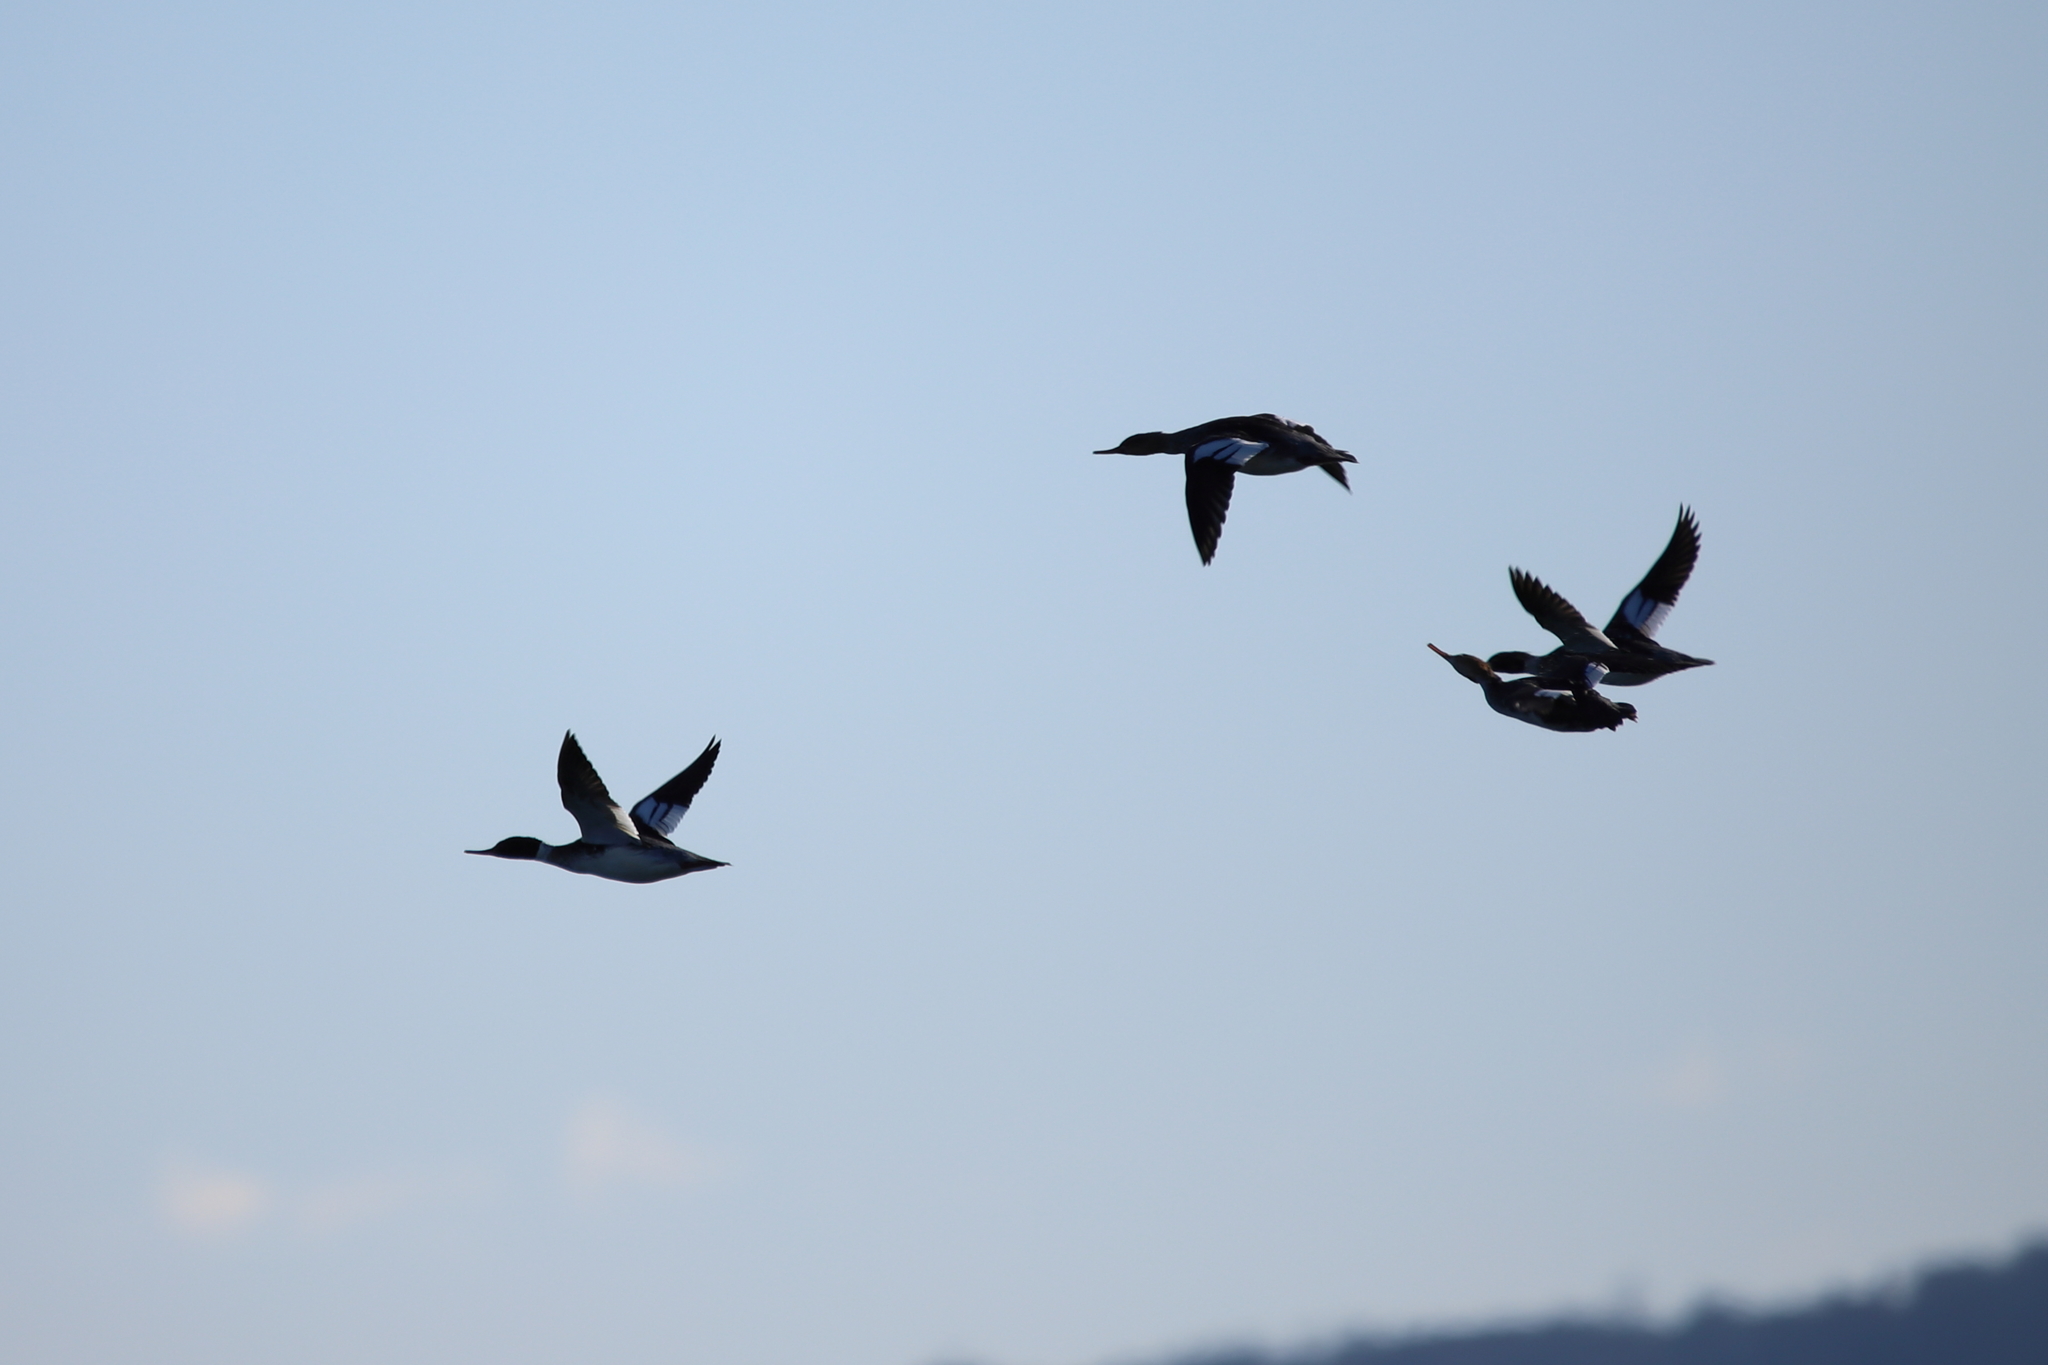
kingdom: Animalia
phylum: Chordata
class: Aves
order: Anseriformes
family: Anatidae
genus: Mergus
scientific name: Mergus serrator
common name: Red-breasted merganser
